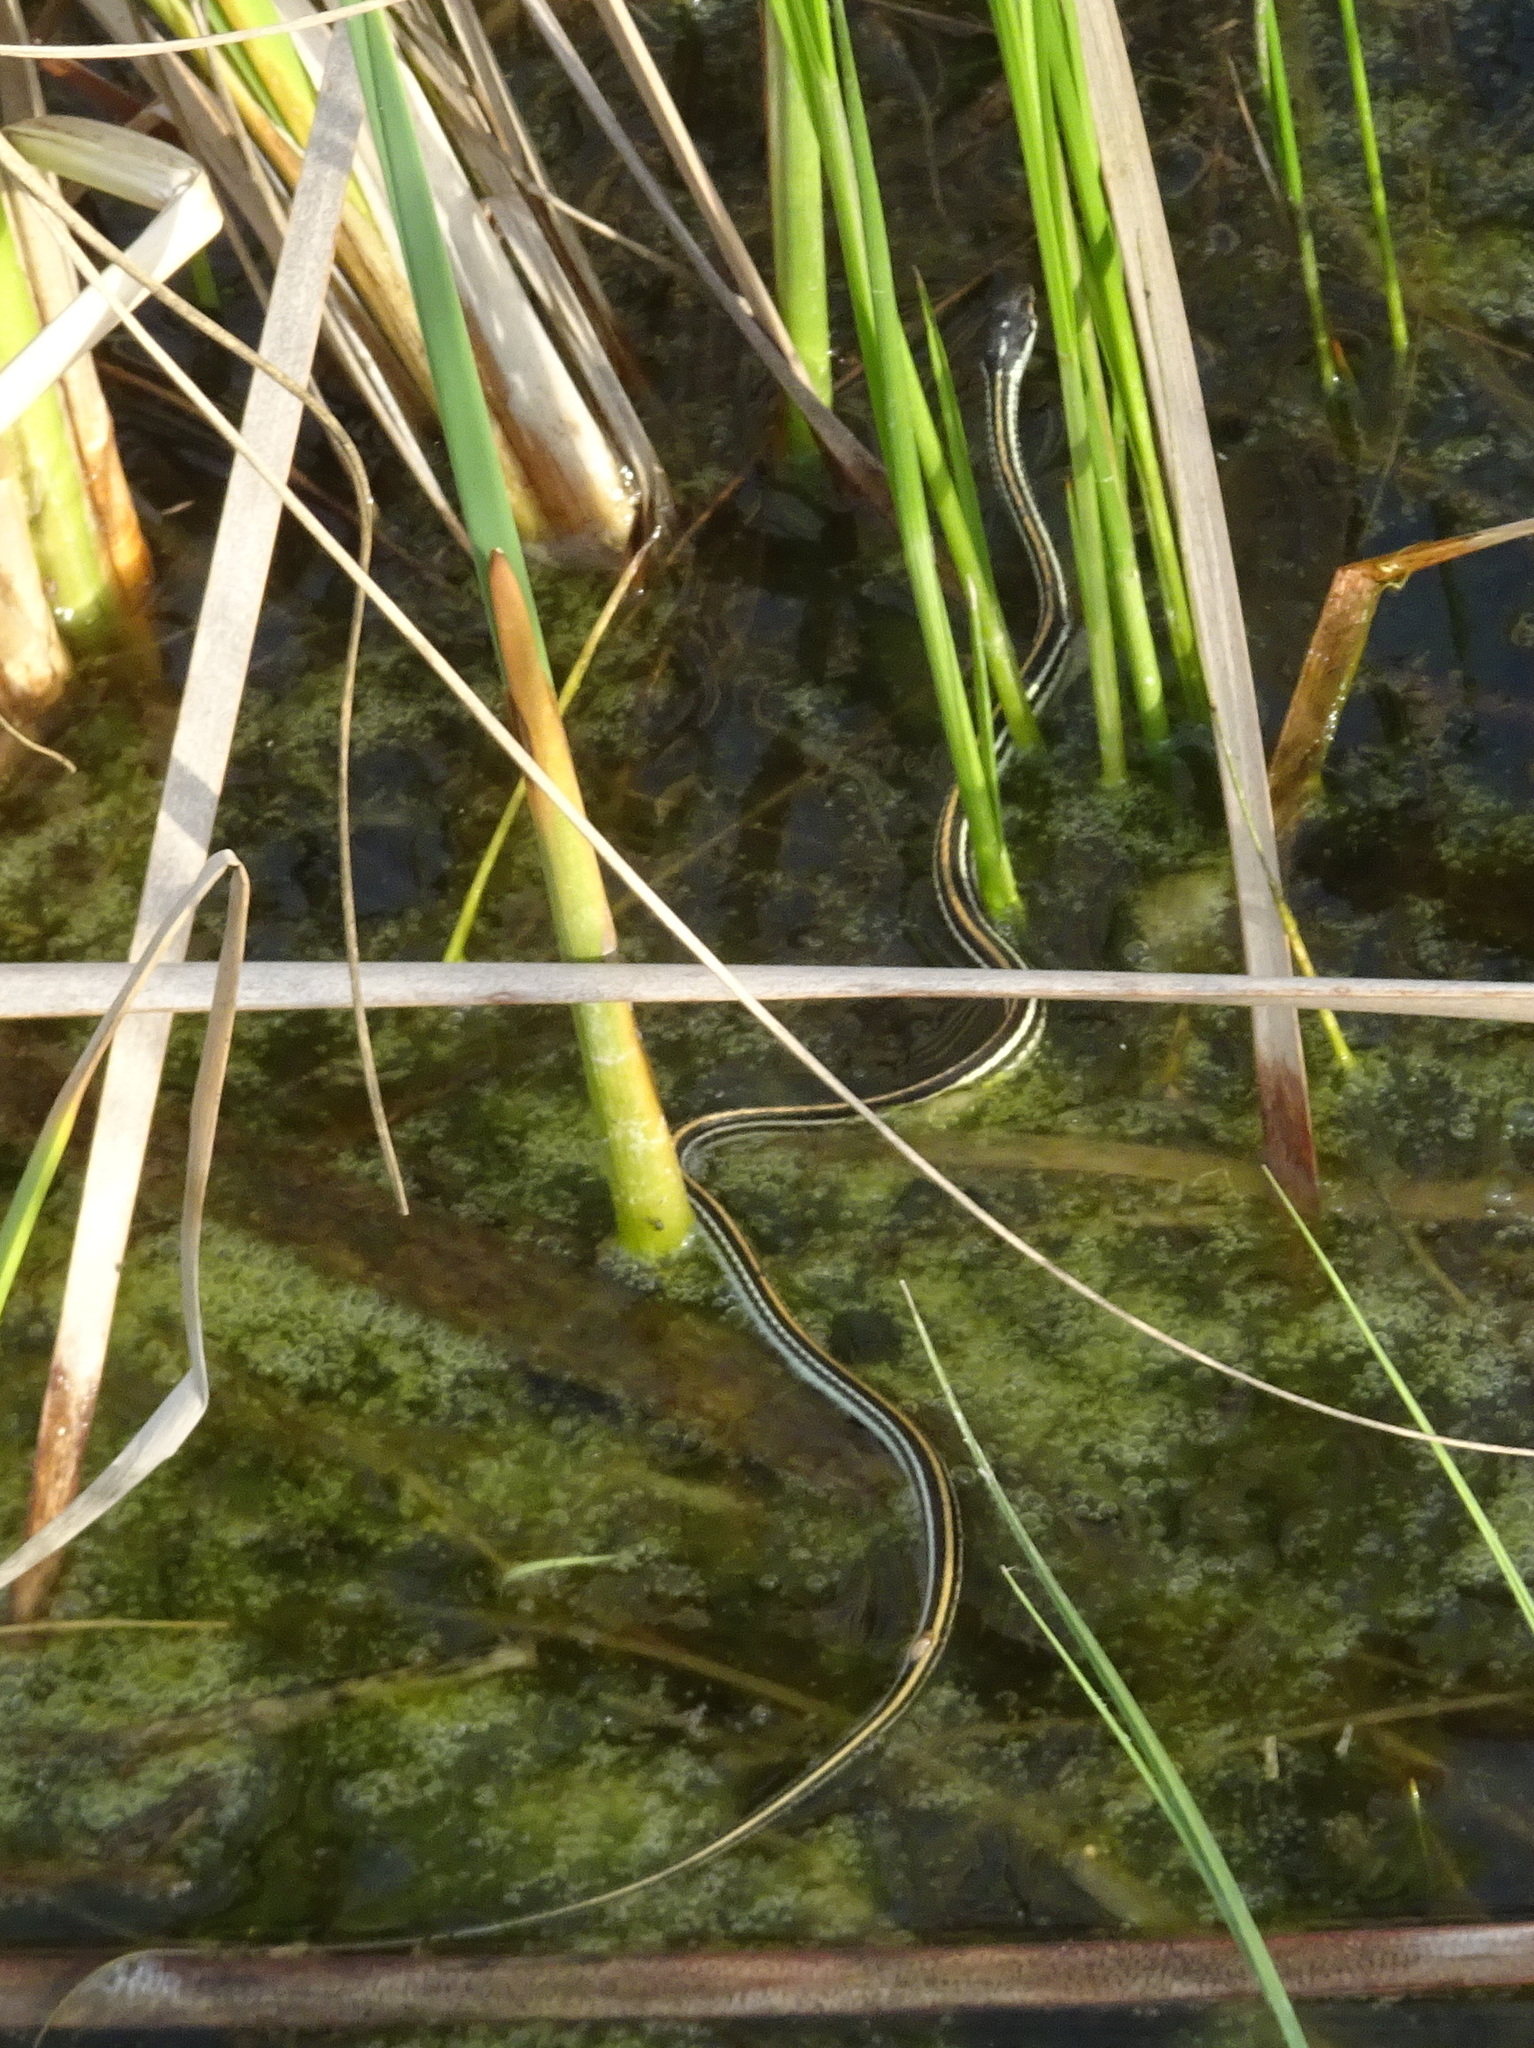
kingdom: Animalia
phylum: Chordata
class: Squamata
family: Colubridae
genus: Thamnophis
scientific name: Thamnophis proximus
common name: Western ribbon snake
